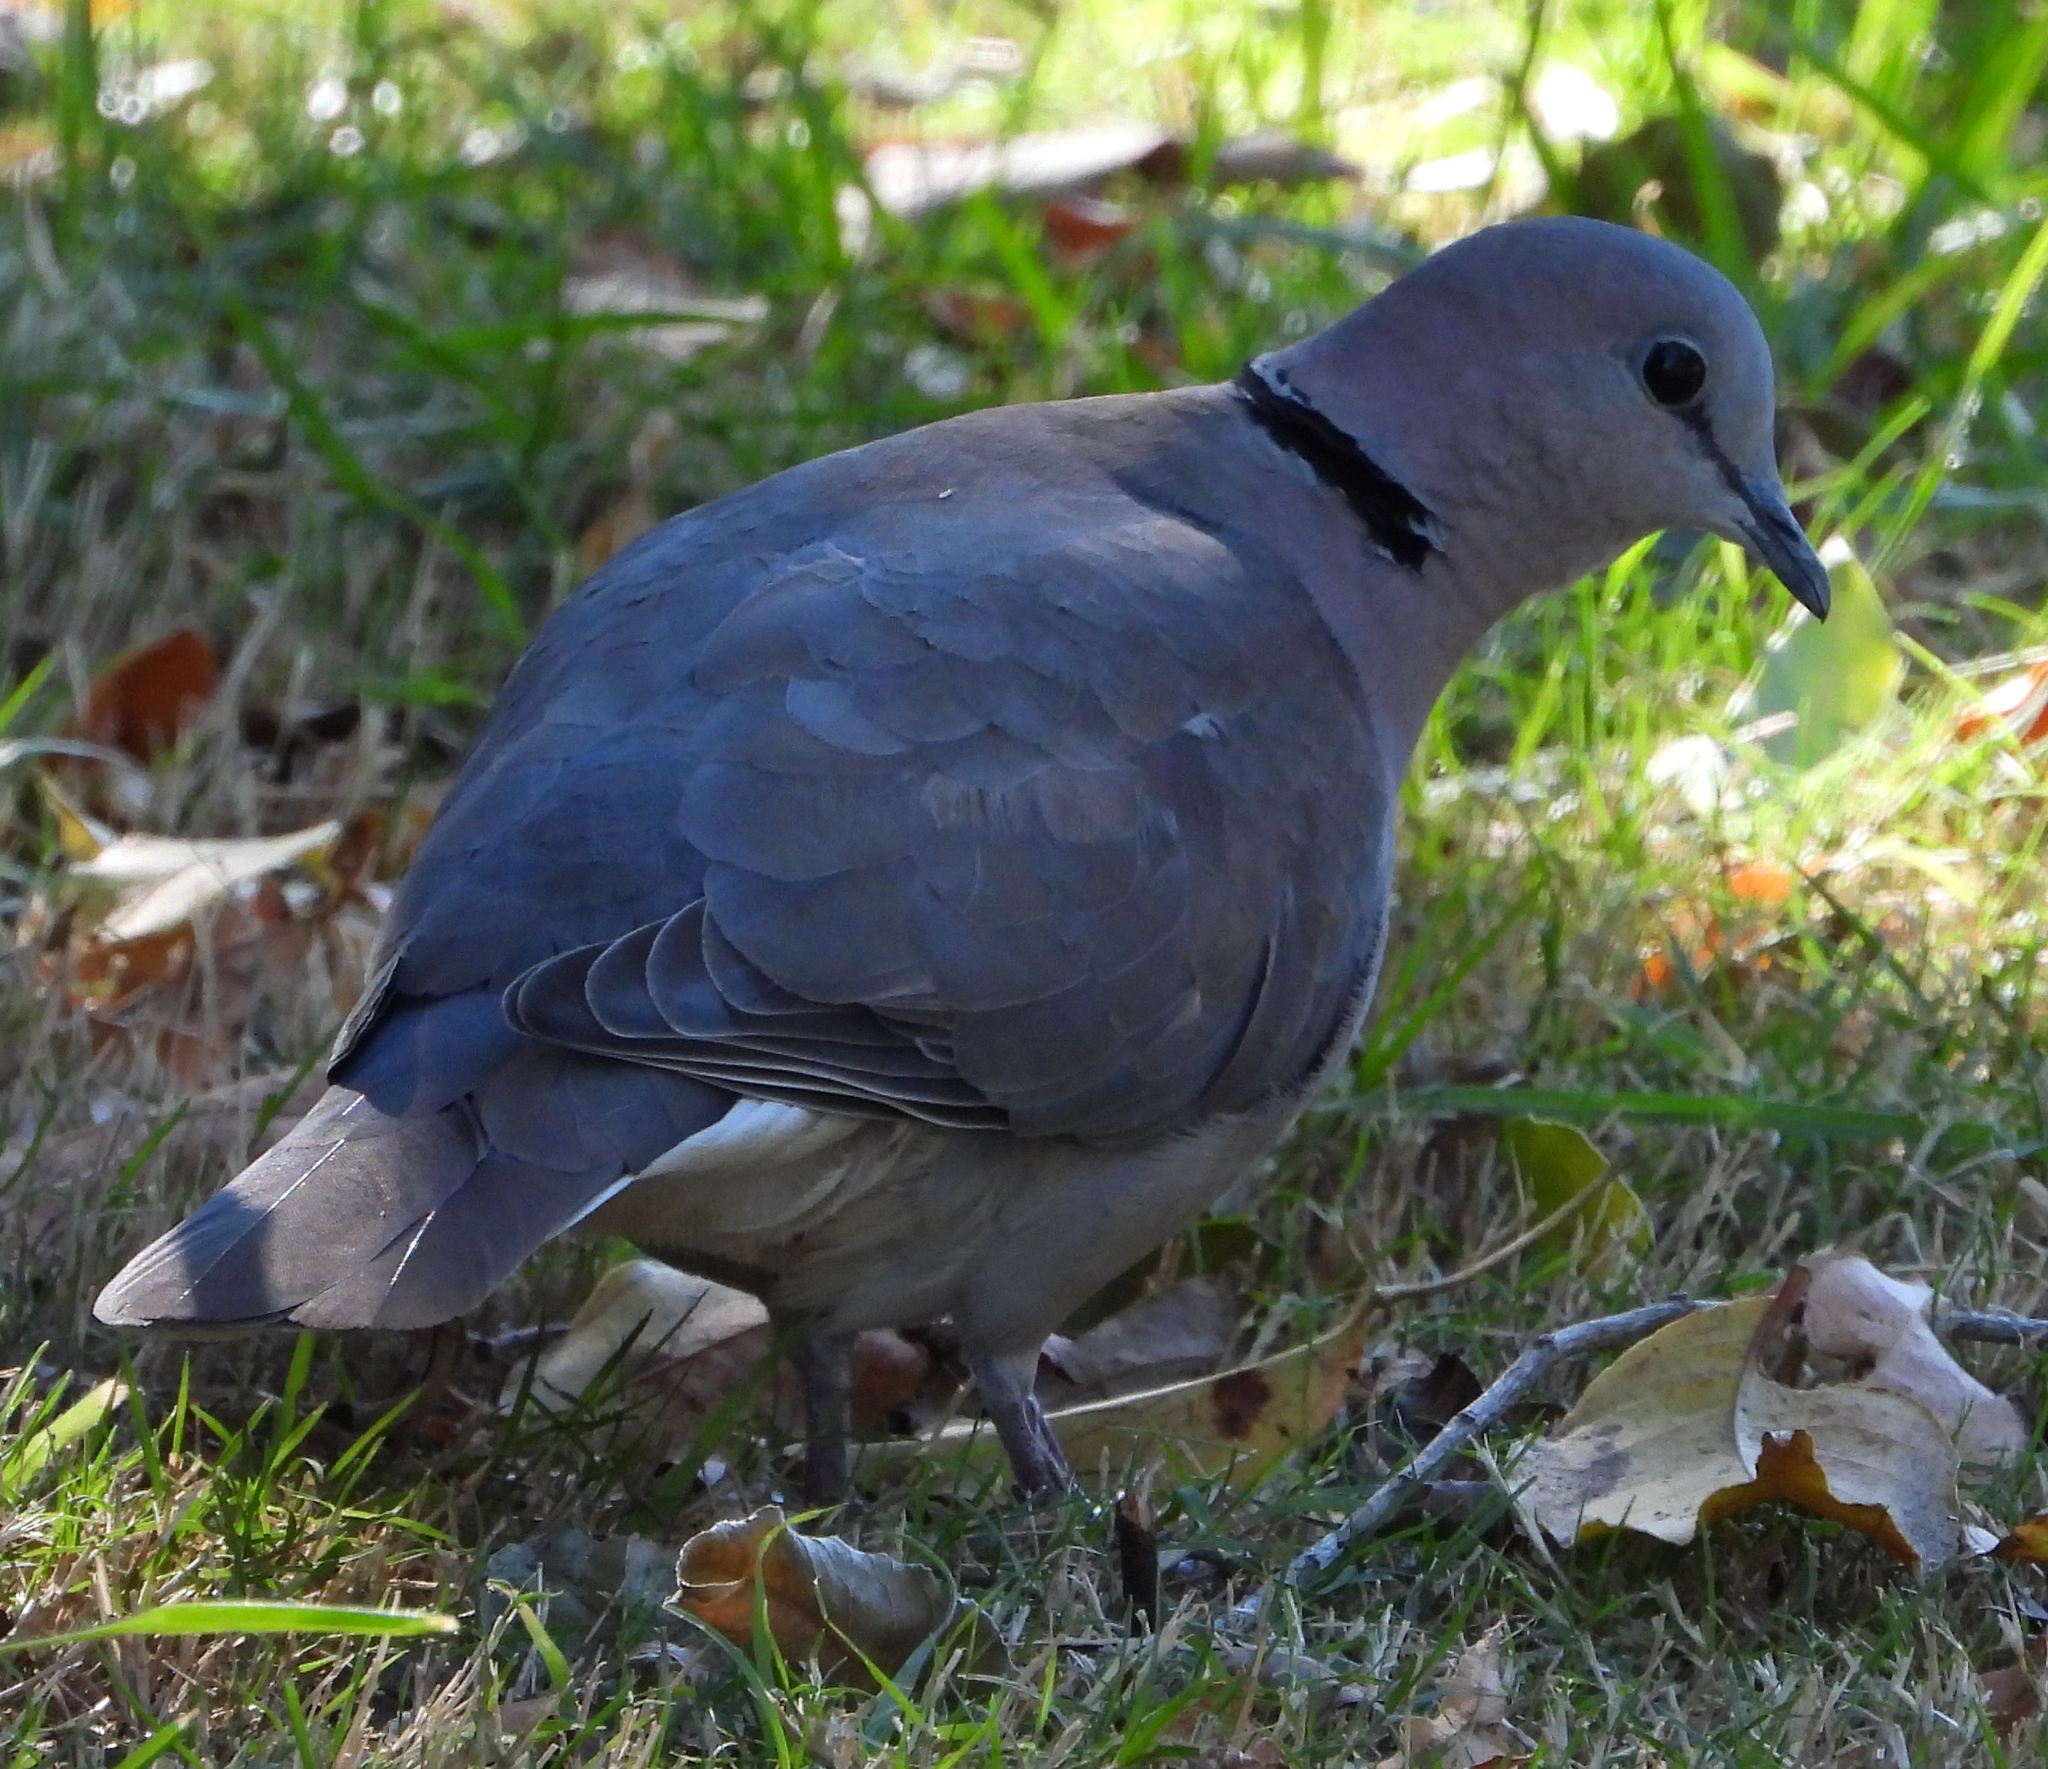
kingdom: Animalia
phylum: Chordata
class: Aves
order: Columbiformes
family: Columbidae
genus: Streptopelia
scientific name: Streptopelia capicola
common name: Ring-necked dove
